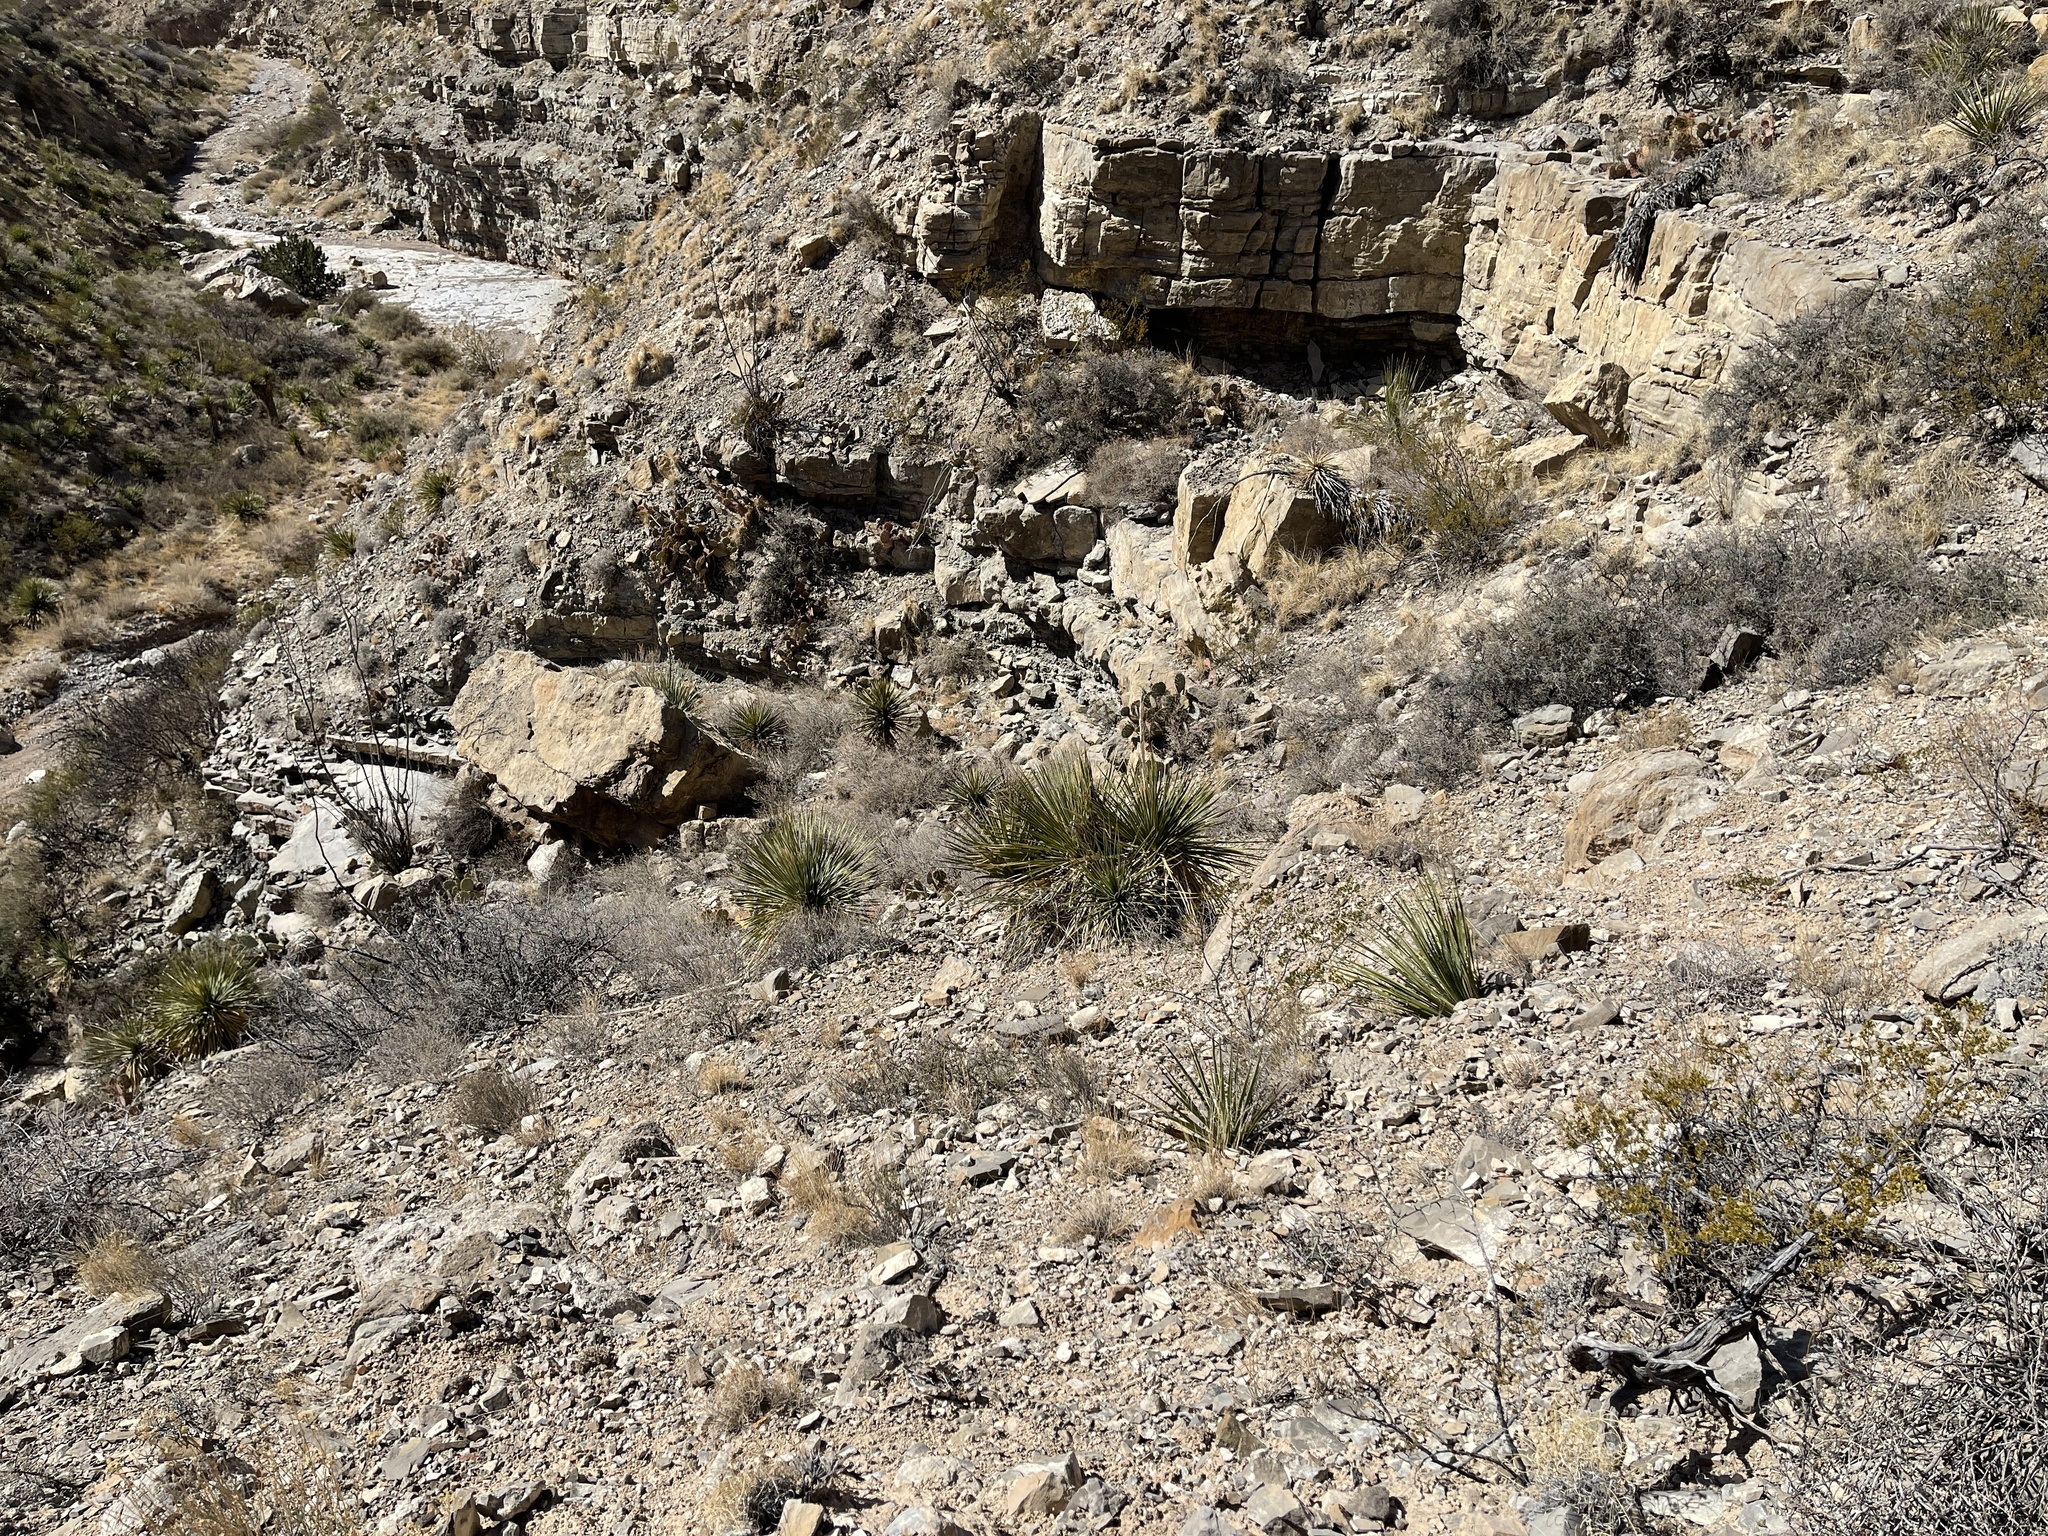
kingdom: Plantae
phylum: Tracheophyta
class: Liliopsida
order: Asparagales
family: Asparagaceae
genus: Dasylirion
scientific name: Dasylirion wheeleri
